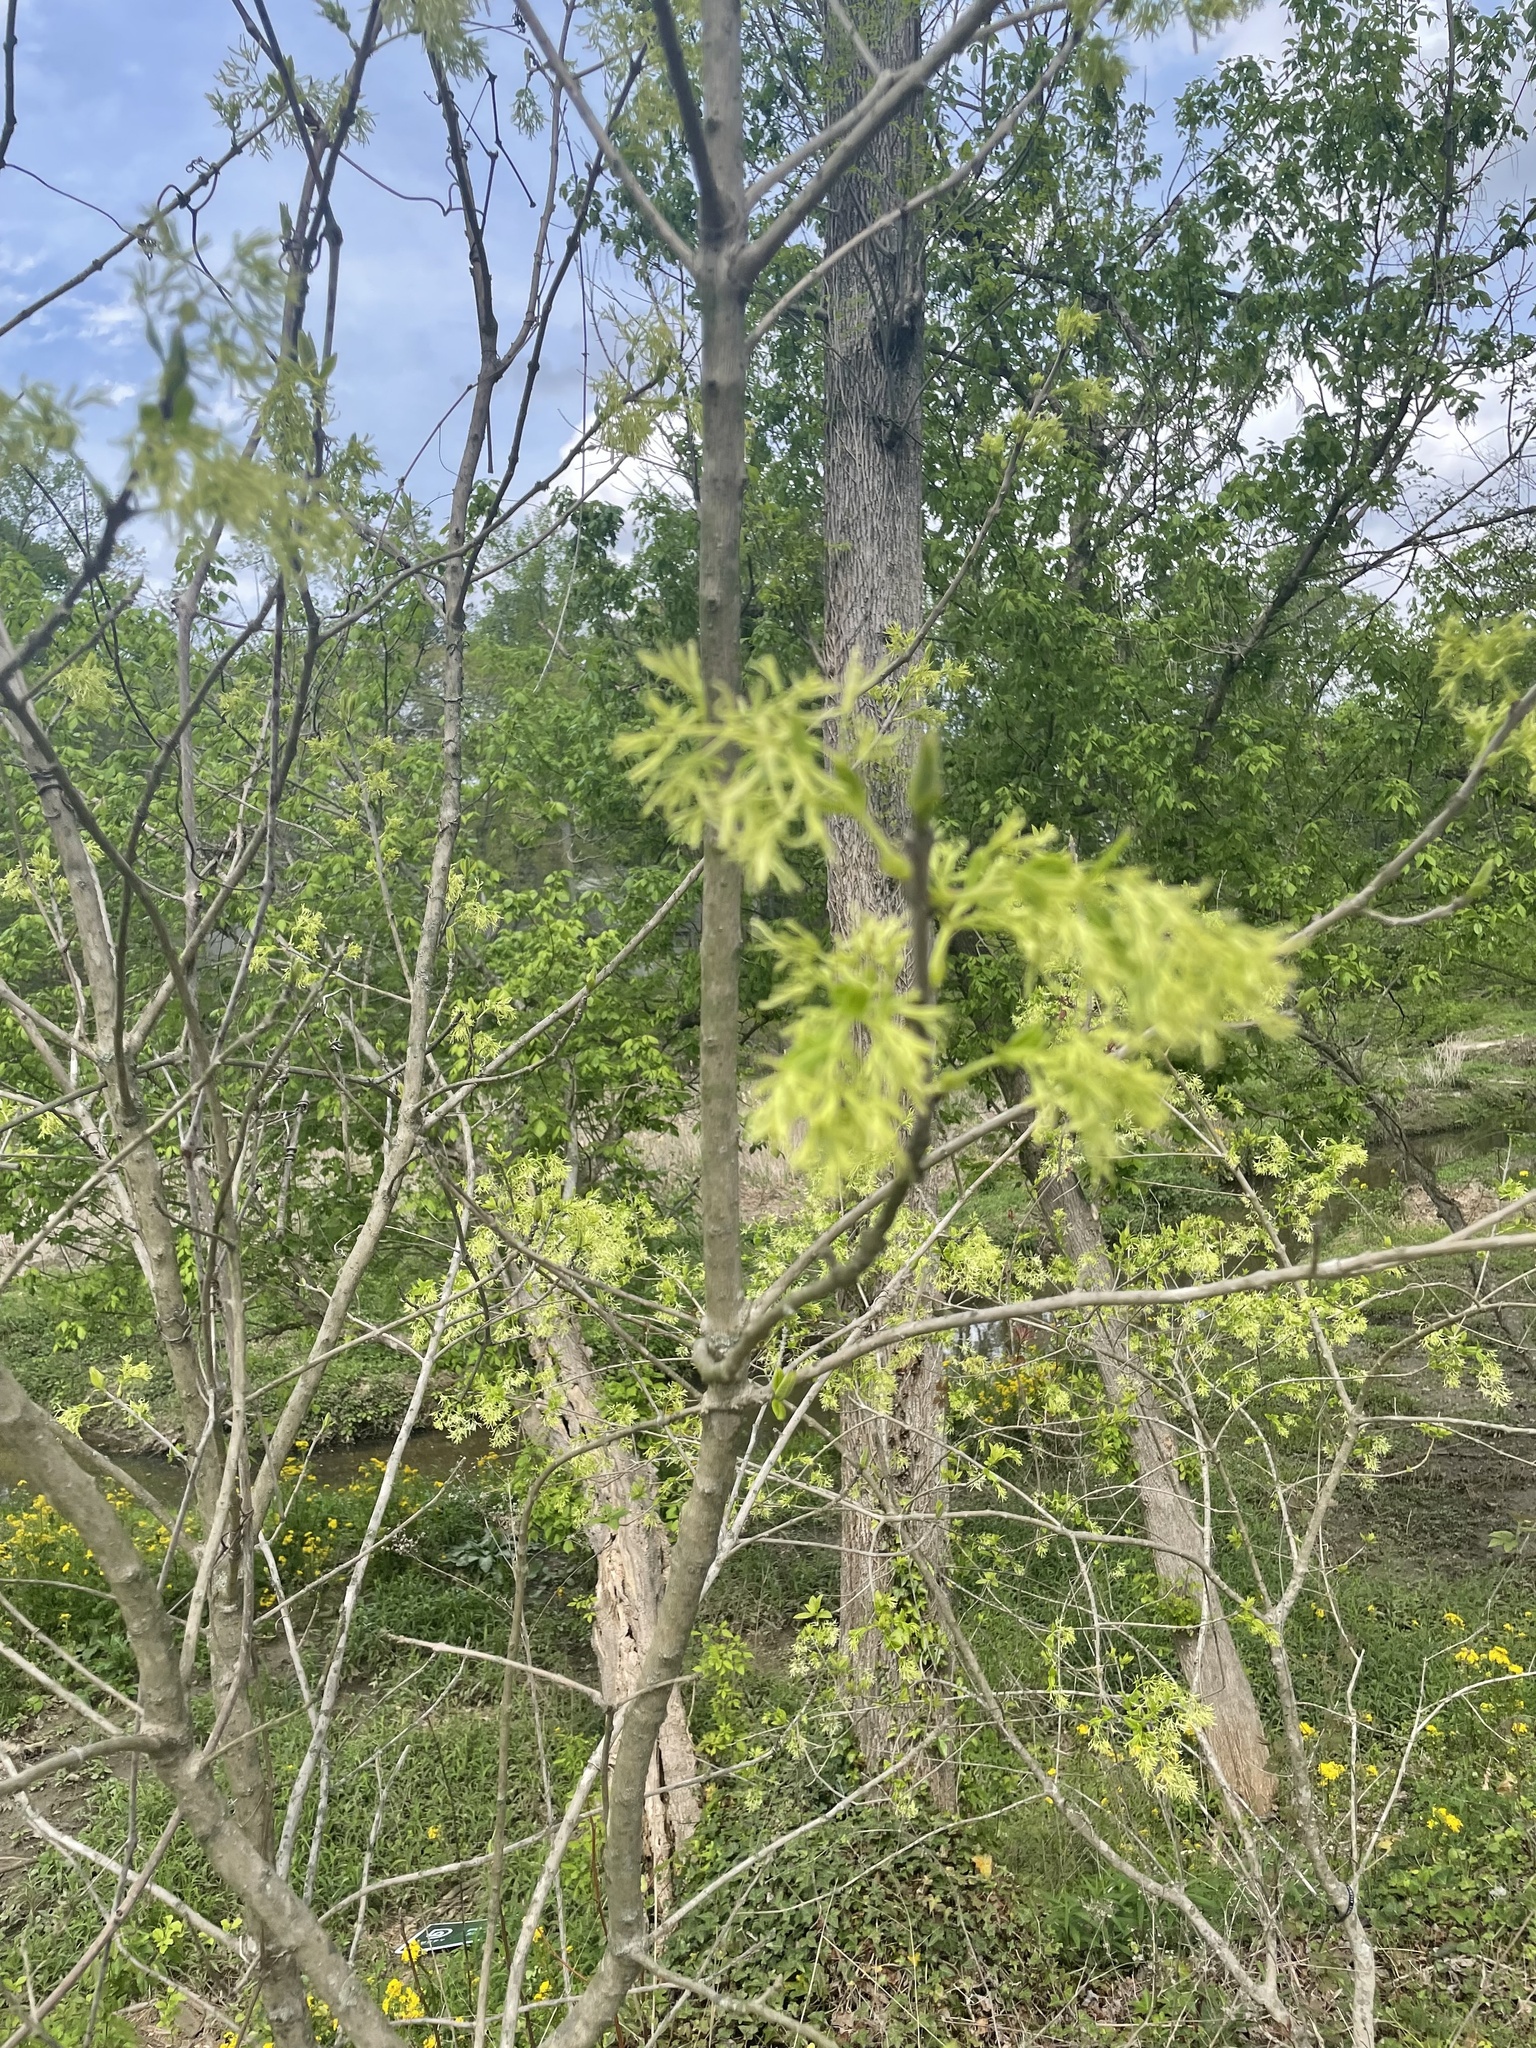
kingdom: Plantae
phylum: Tracheophyta
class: Magnoliopsida
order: Lamiales
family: Oleaceae
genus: Chionanthus
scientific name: Chionanthus virginicus
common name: American fringetree
